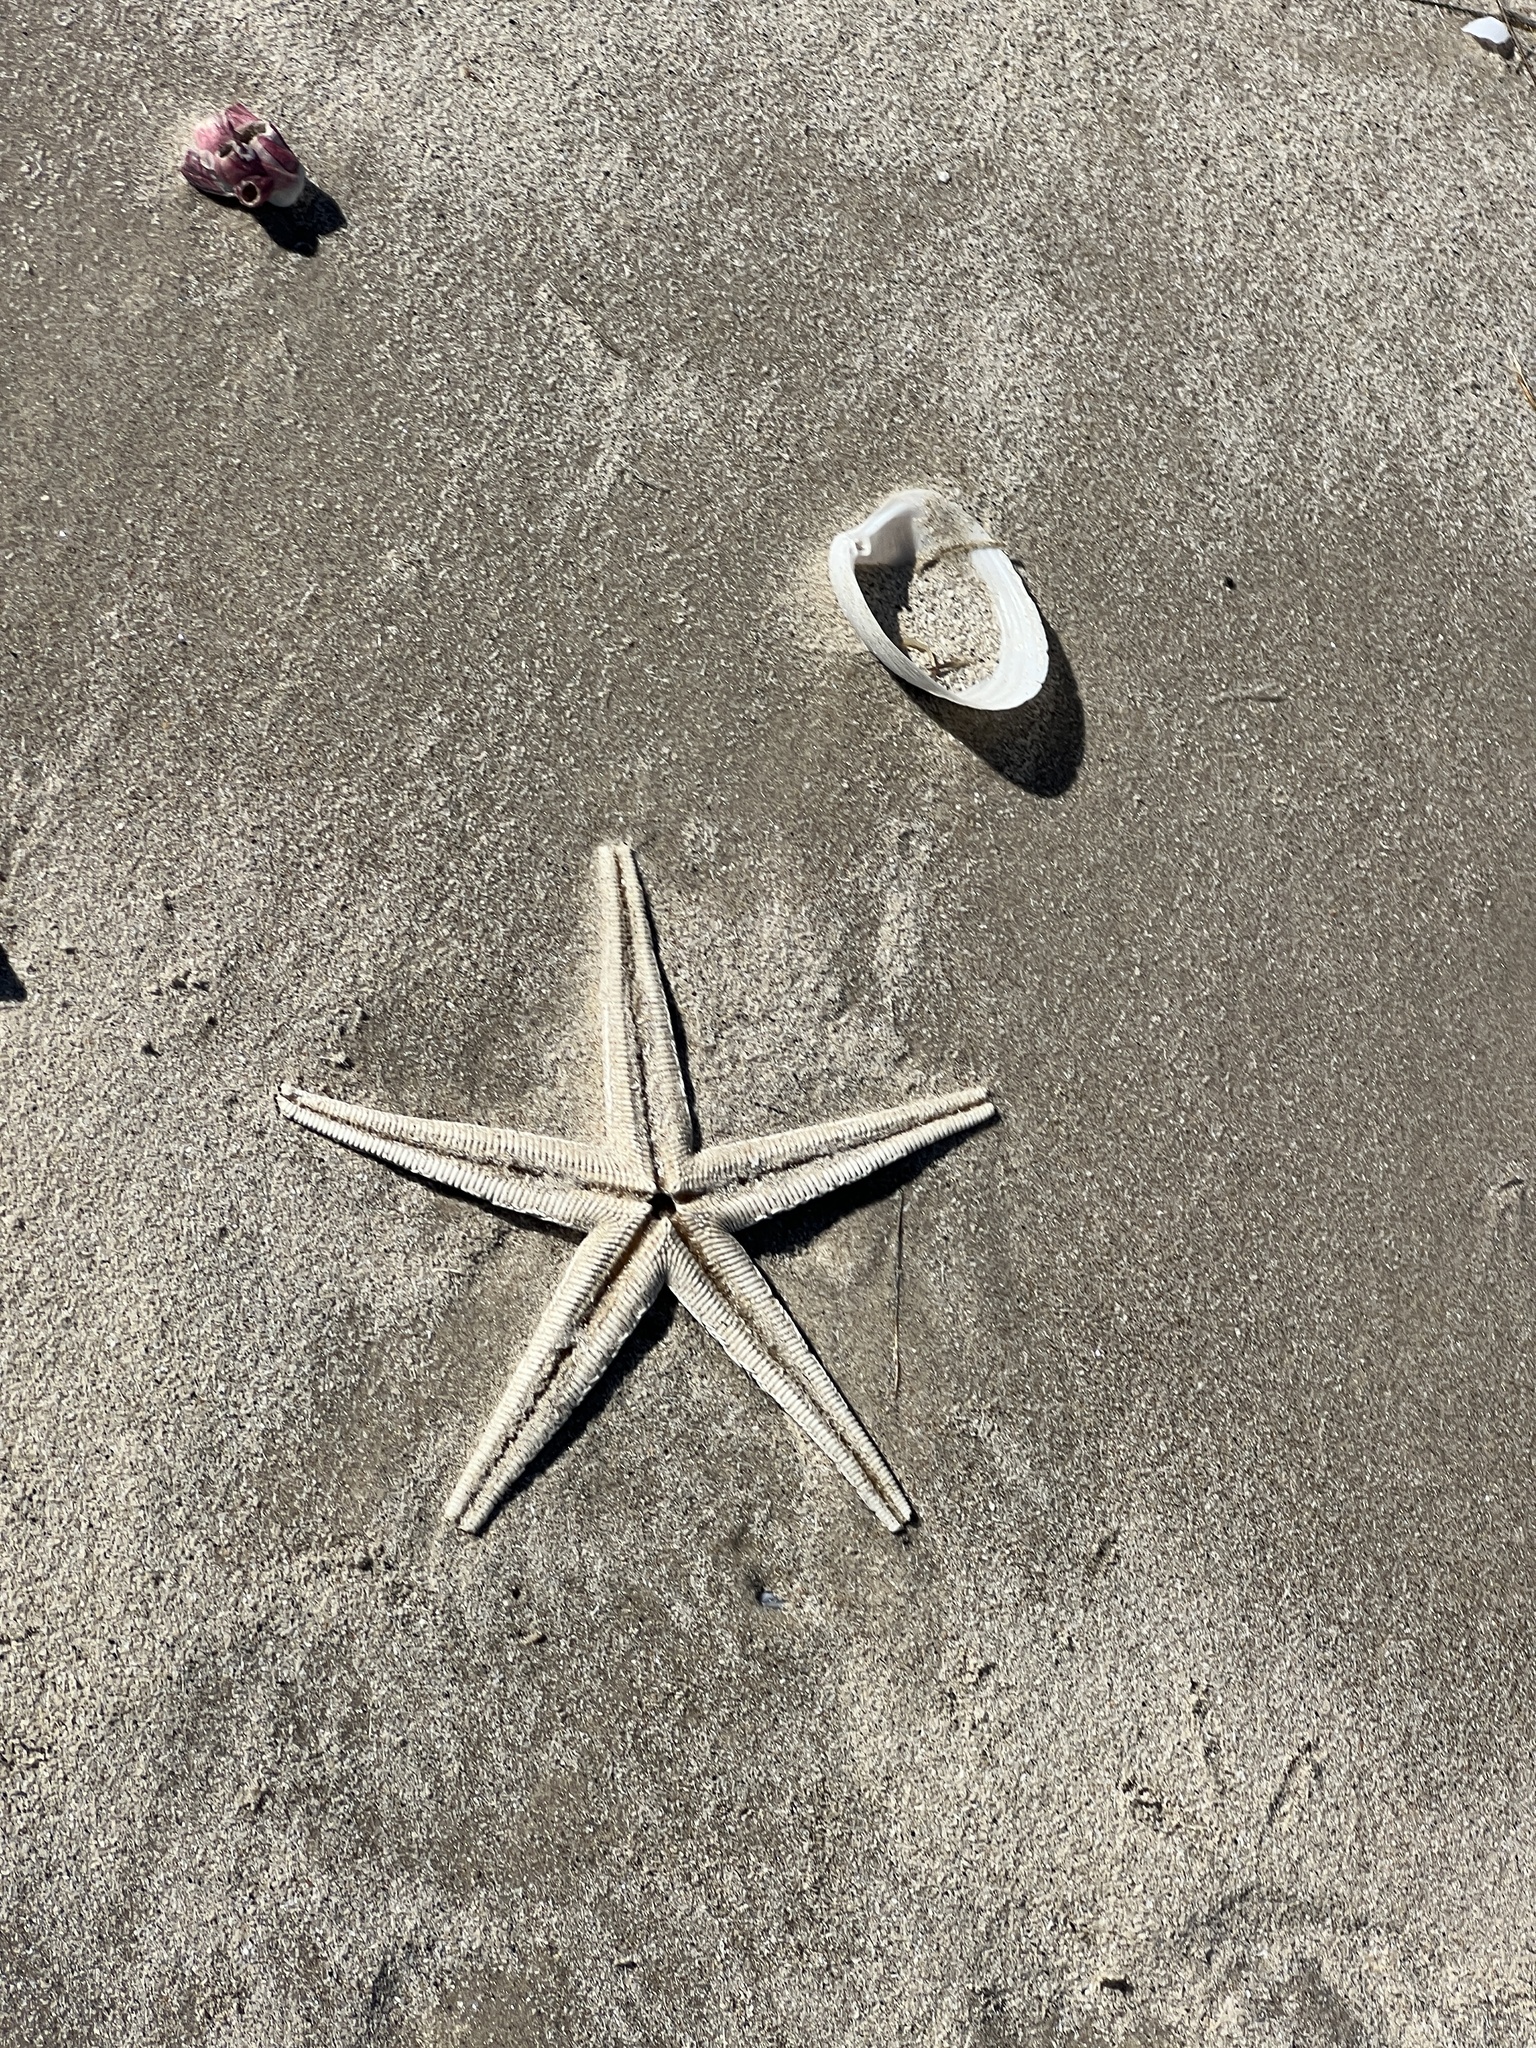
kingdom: Animalia
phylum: Echinodermata
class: Asteroidea
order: Paxillosida
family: Luidiidae
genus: Luidia
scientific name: Luidia clathrata
